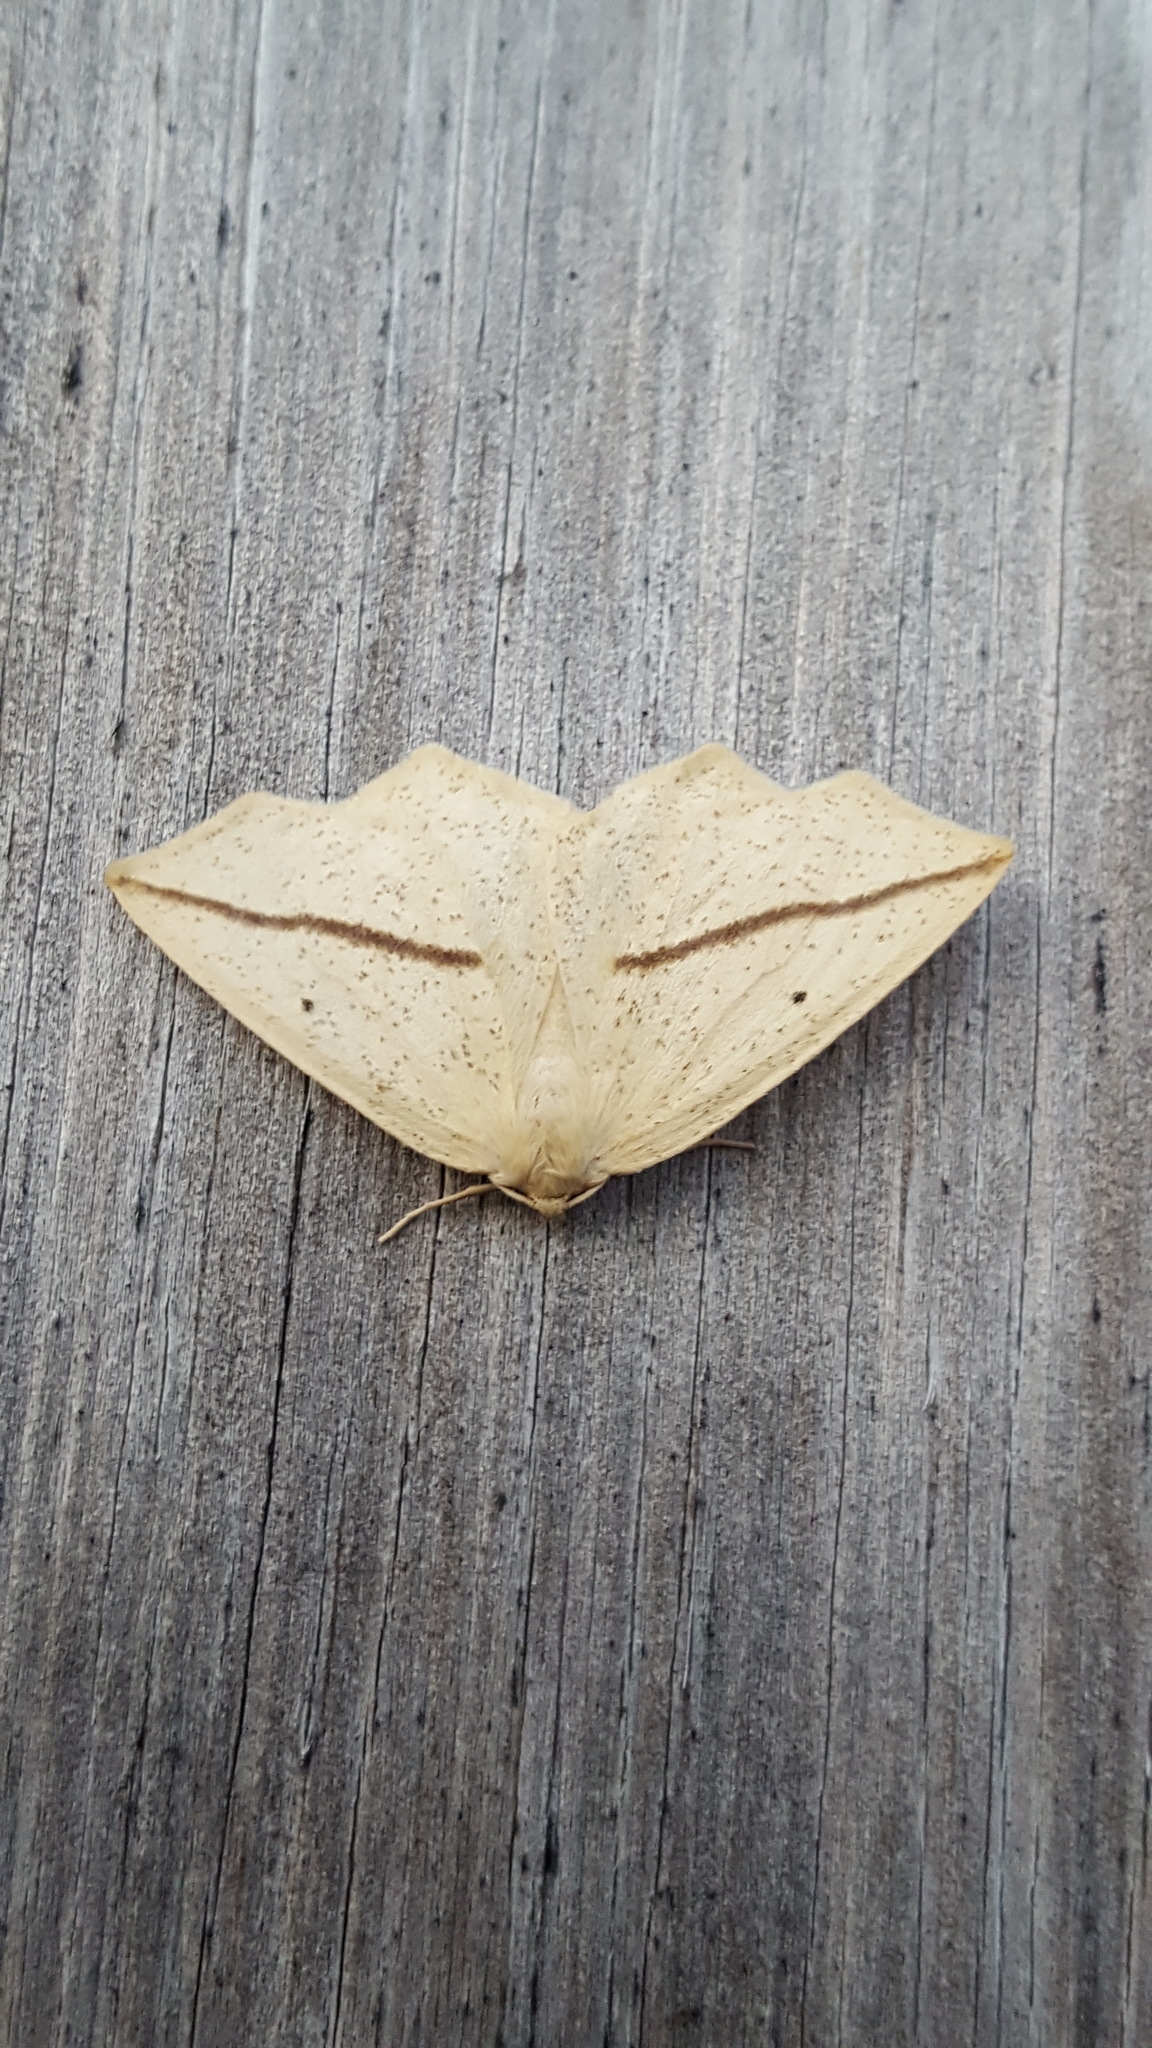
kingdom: Animalia
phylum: Arthropoda
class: Insecta
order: Lepidoptera
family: Geometridae
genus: Tetracis
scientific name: Tetracis crocallata
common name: Yellow slant-line
